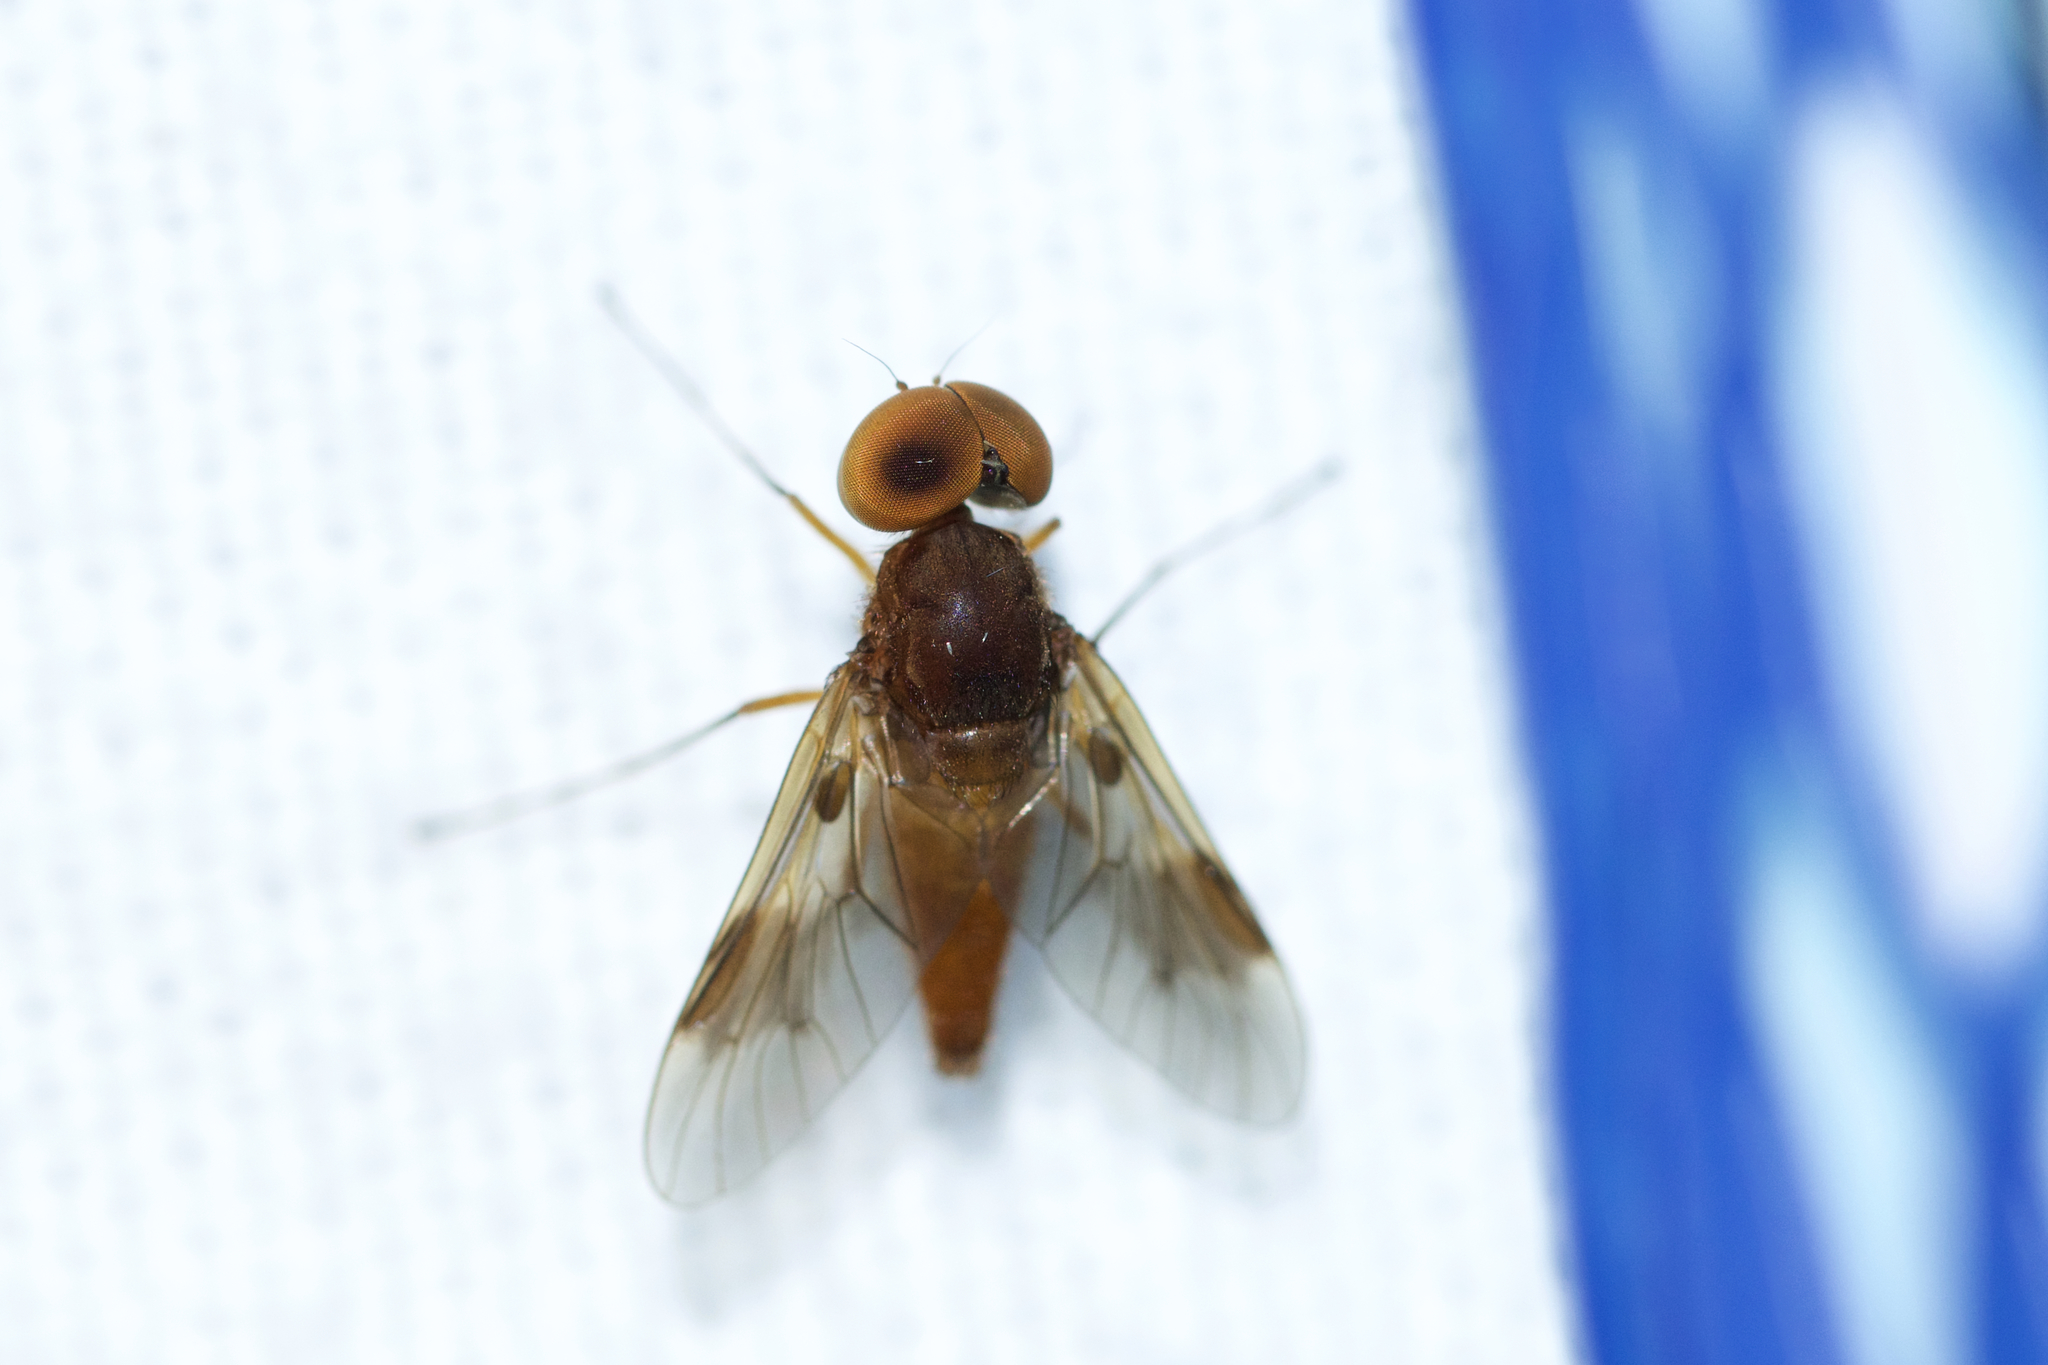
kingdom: Animalia
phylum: Arthropoda
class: Insecta
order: Diptera
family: Rhagionidae
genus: Chrysopilus
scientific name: Chrysopilus quadratus
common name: Quadrate snipe fly
